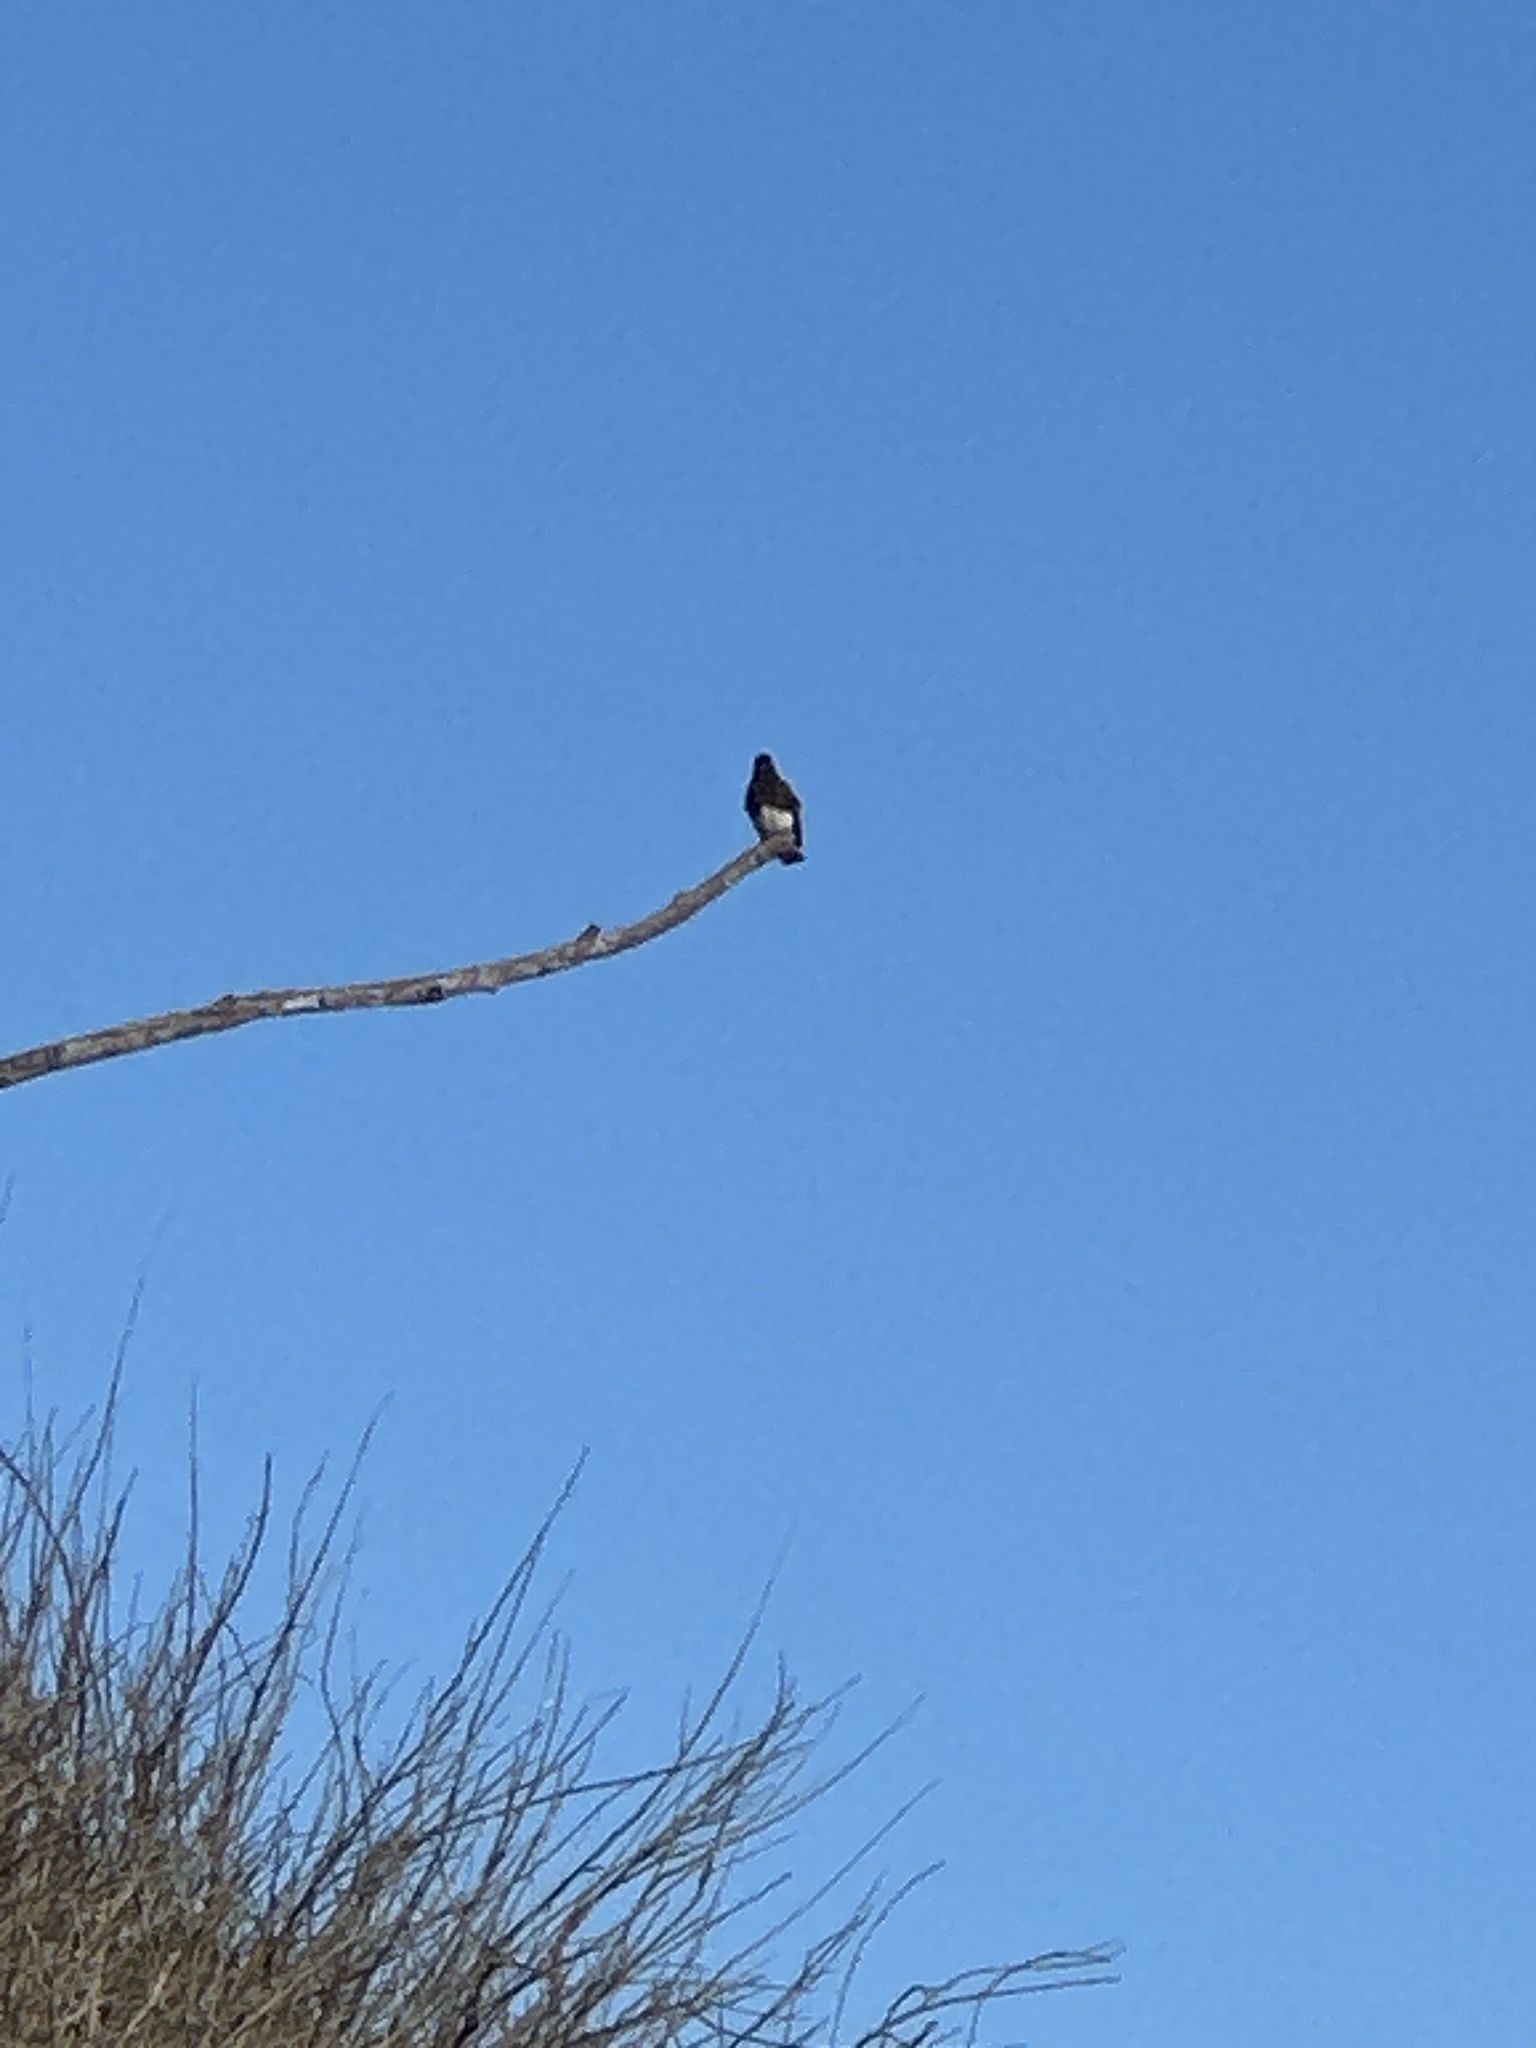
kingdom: Animalia
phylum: Chordata
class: Aves
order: Passeriformes
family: Tyrannidae
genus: Sayornis
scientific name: Sayornis nigricans
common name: Black phoebe
